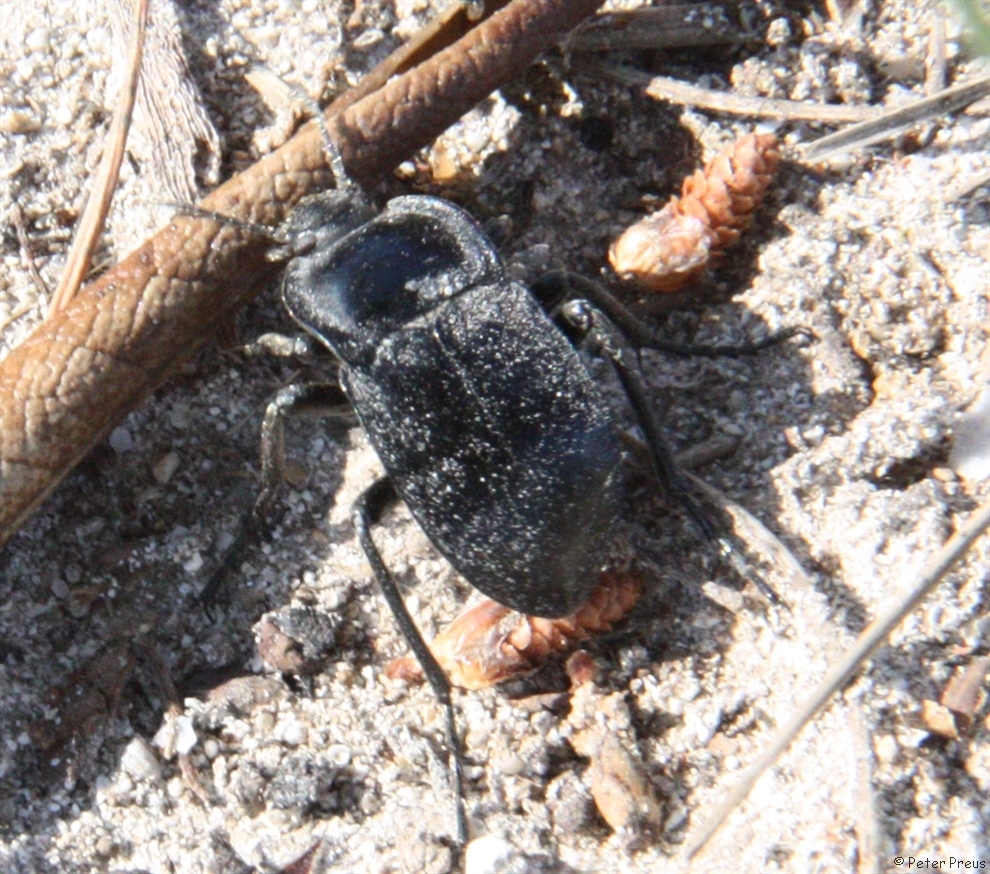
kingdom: Animalia
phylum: Arthropoda
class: Insecta
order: Coleoptera
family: Tenebrionidae
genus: Alphasida
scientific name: Alphasida depressa
